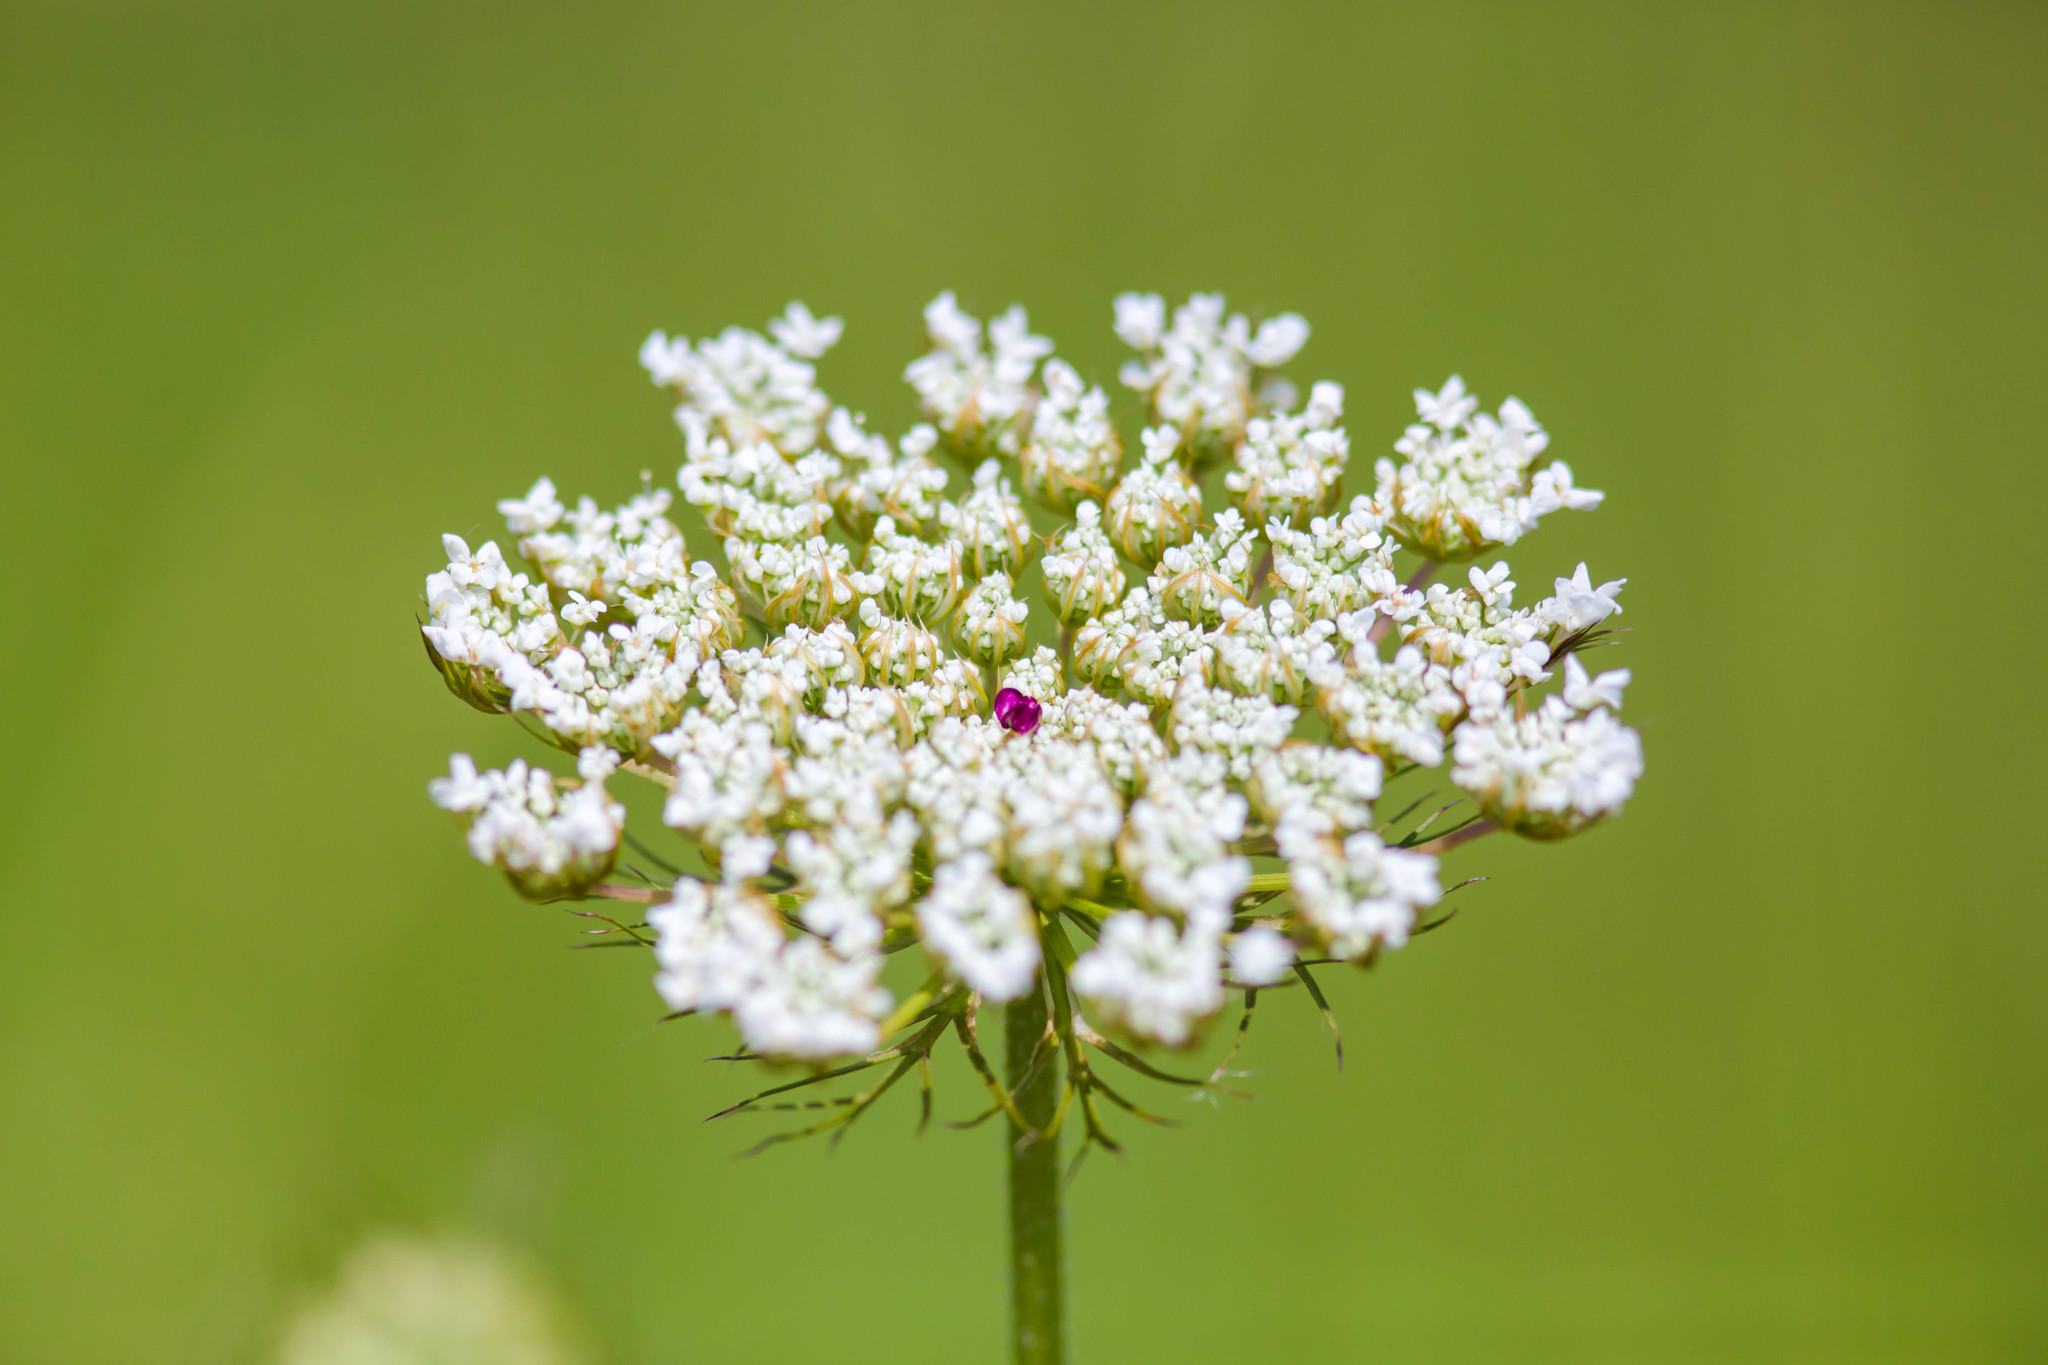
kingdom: Plantae
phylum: Tracheophyta
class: Magnoliopsida
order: Apiales
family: Apiaceae
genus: Daucus
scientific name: Daucus carota
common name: Wild carrot
